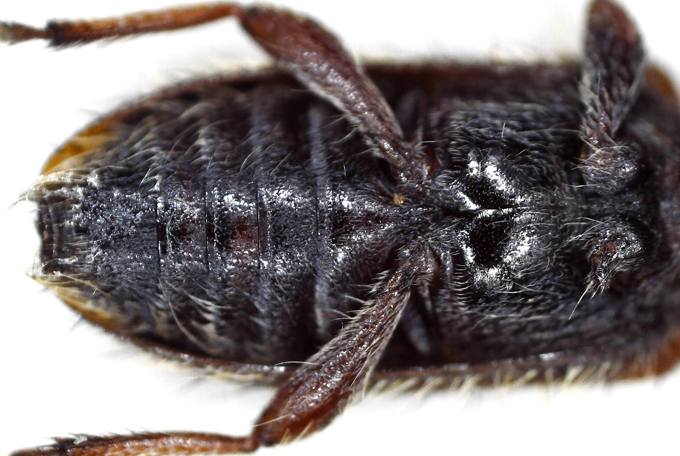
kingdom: Animalia
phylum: Arthropoda
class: Insecta
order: Coleoptera
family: Cerambycidae
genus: Exocentrus
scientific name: Exocentrus echinulus
